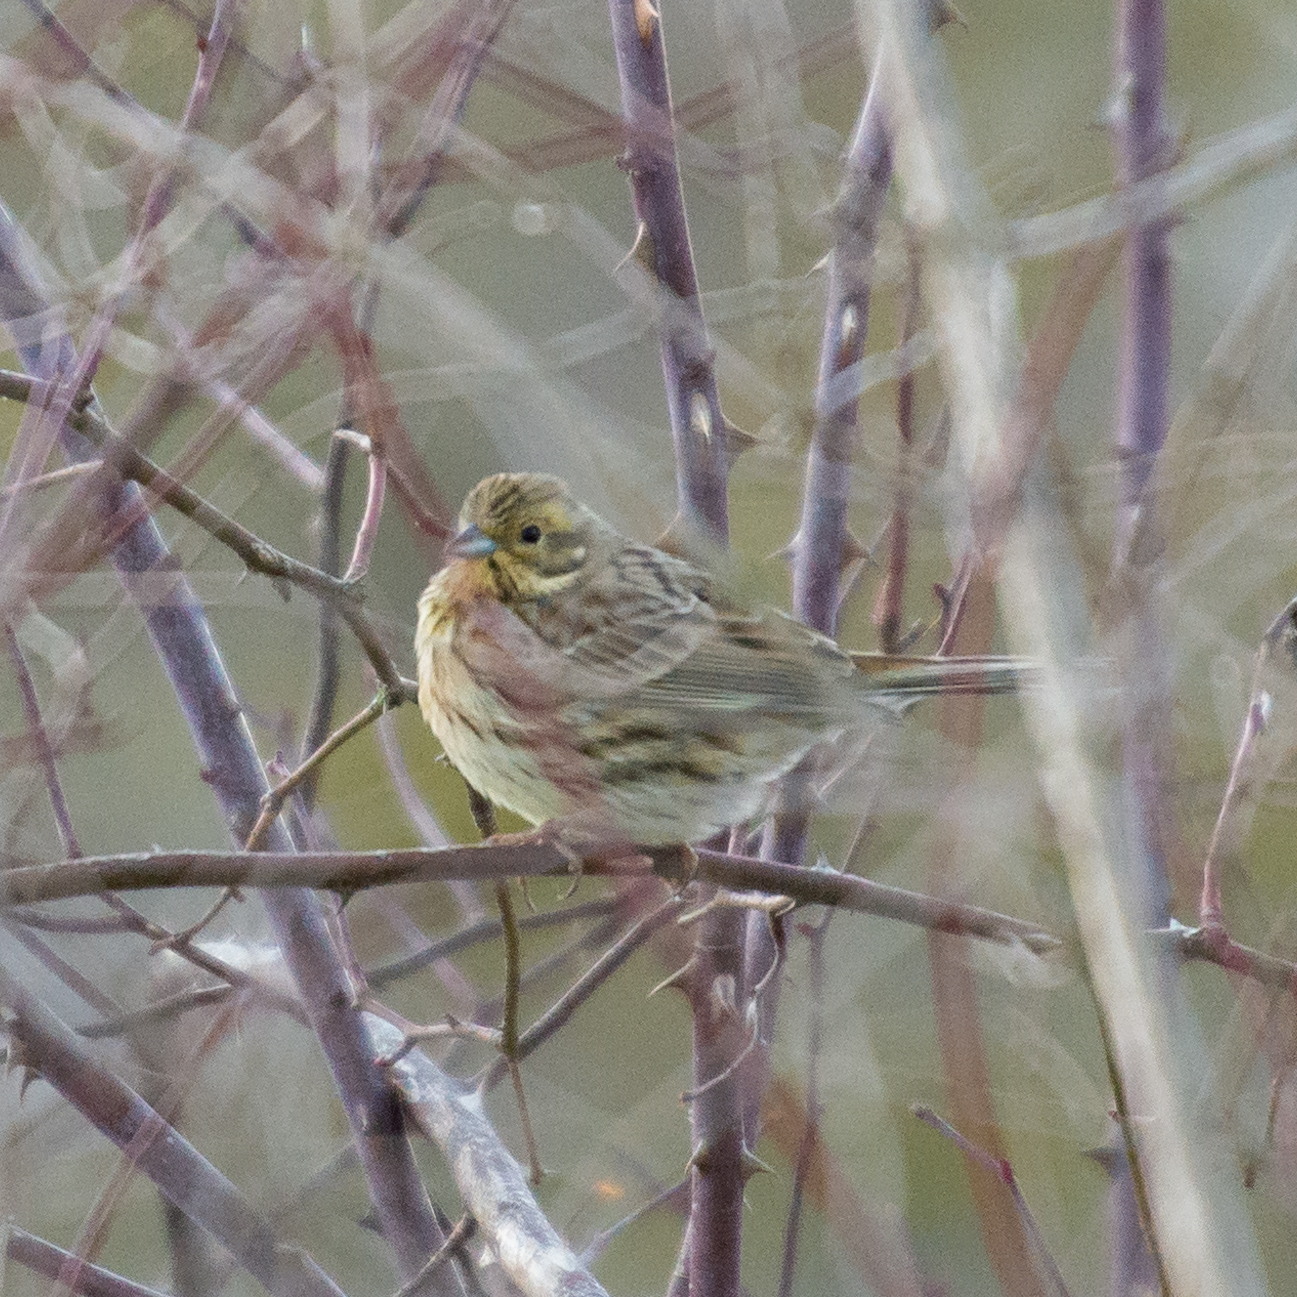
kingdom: Animalia
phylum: Chordata
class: Aves
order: Passeriformes
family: Emberizidae
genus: Emberiza
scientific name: Emberiza citrinella
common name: Yellowhammer
